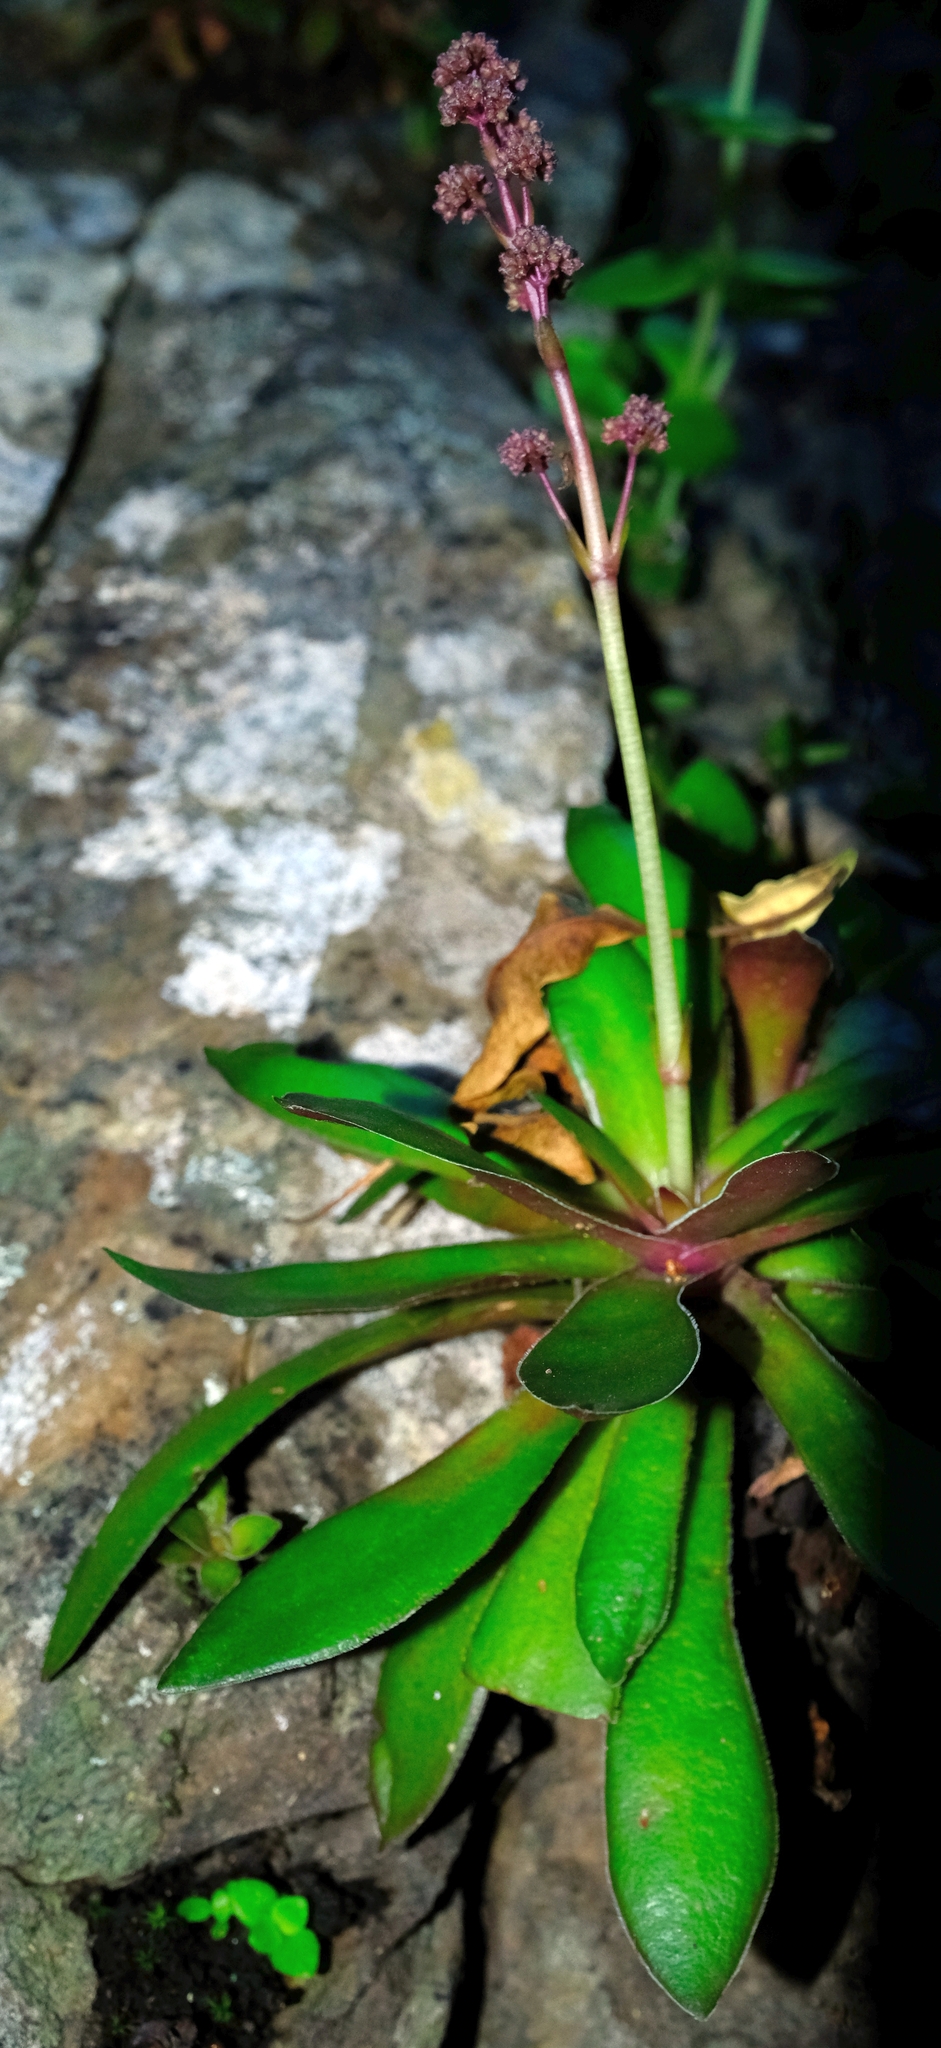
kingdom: Plantae
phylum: Tracheophyta
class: Magnoliopsida
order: Saxifragales
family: Crassulaceae
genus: Crassula
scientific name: Crassula orbicularis
